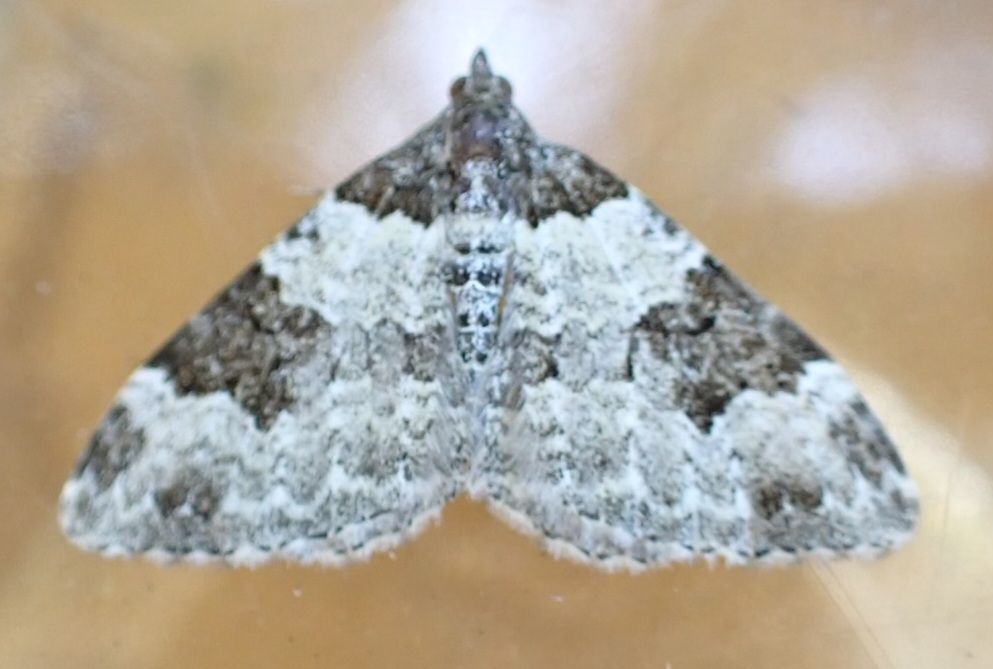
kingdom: Animalia
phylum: Arthropoda
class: Insecta
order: Lepidoptera
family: Geometridae
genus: Xanthorhoe
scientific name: Xanthorhoe fluctuata
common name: Garden carpet
